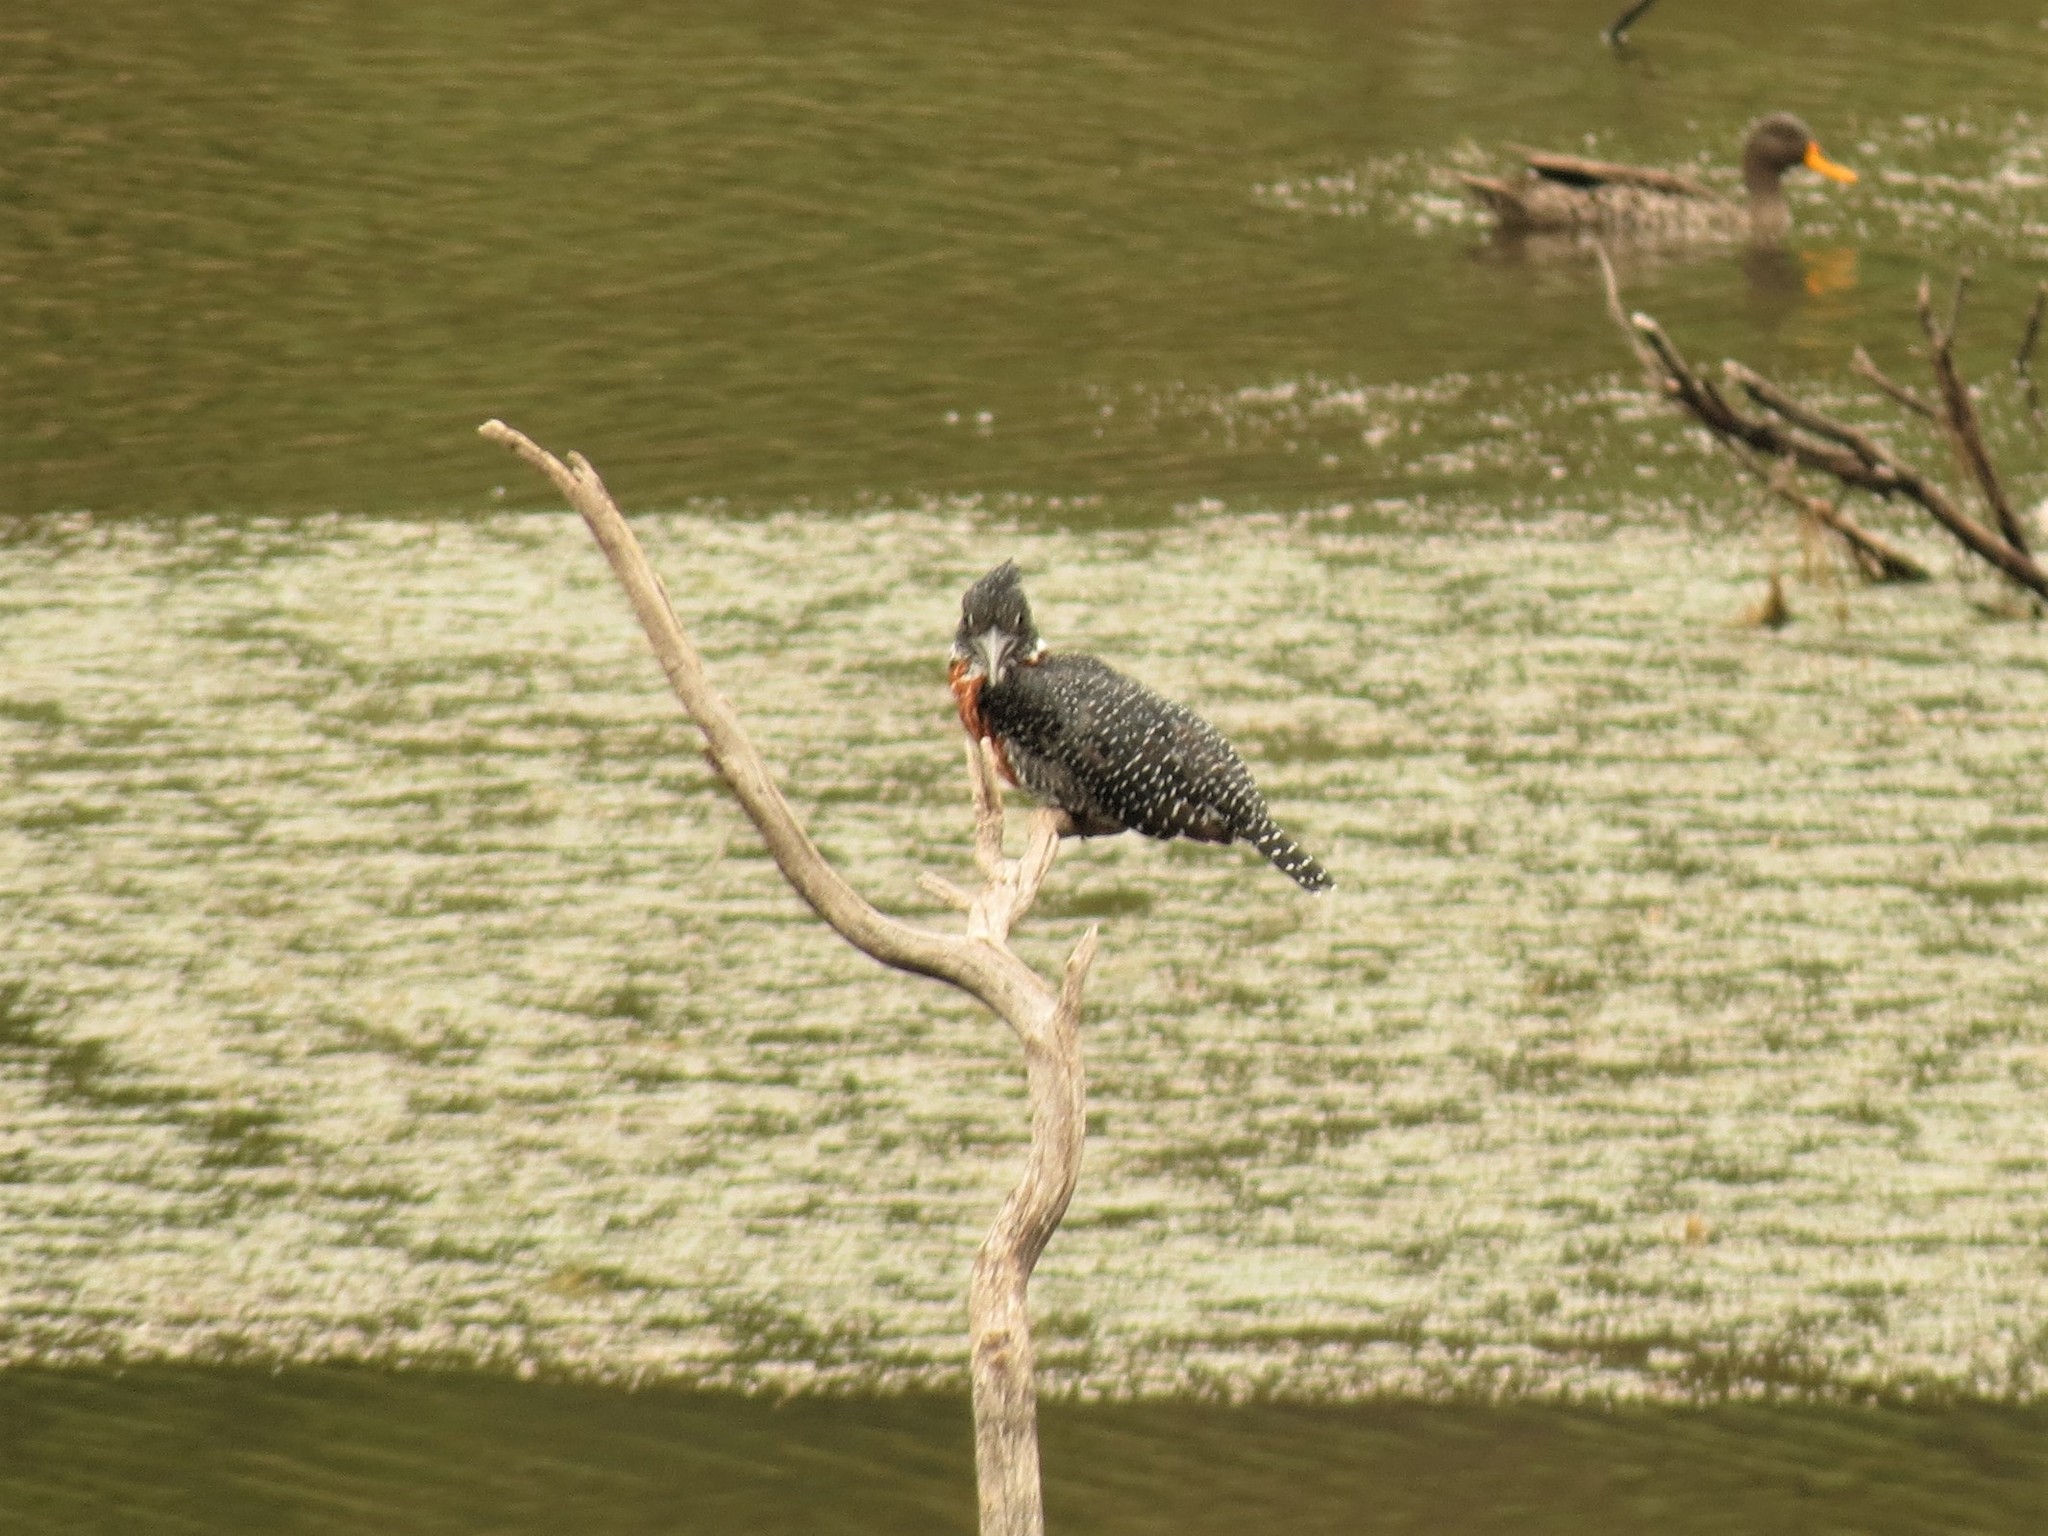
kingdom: Animalia
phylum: Chordata
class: Aves
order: Coraciiformes
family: Alcedinidae
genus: Megaceryle
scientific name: Megaceryle maxima
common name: Giant kingfisher
